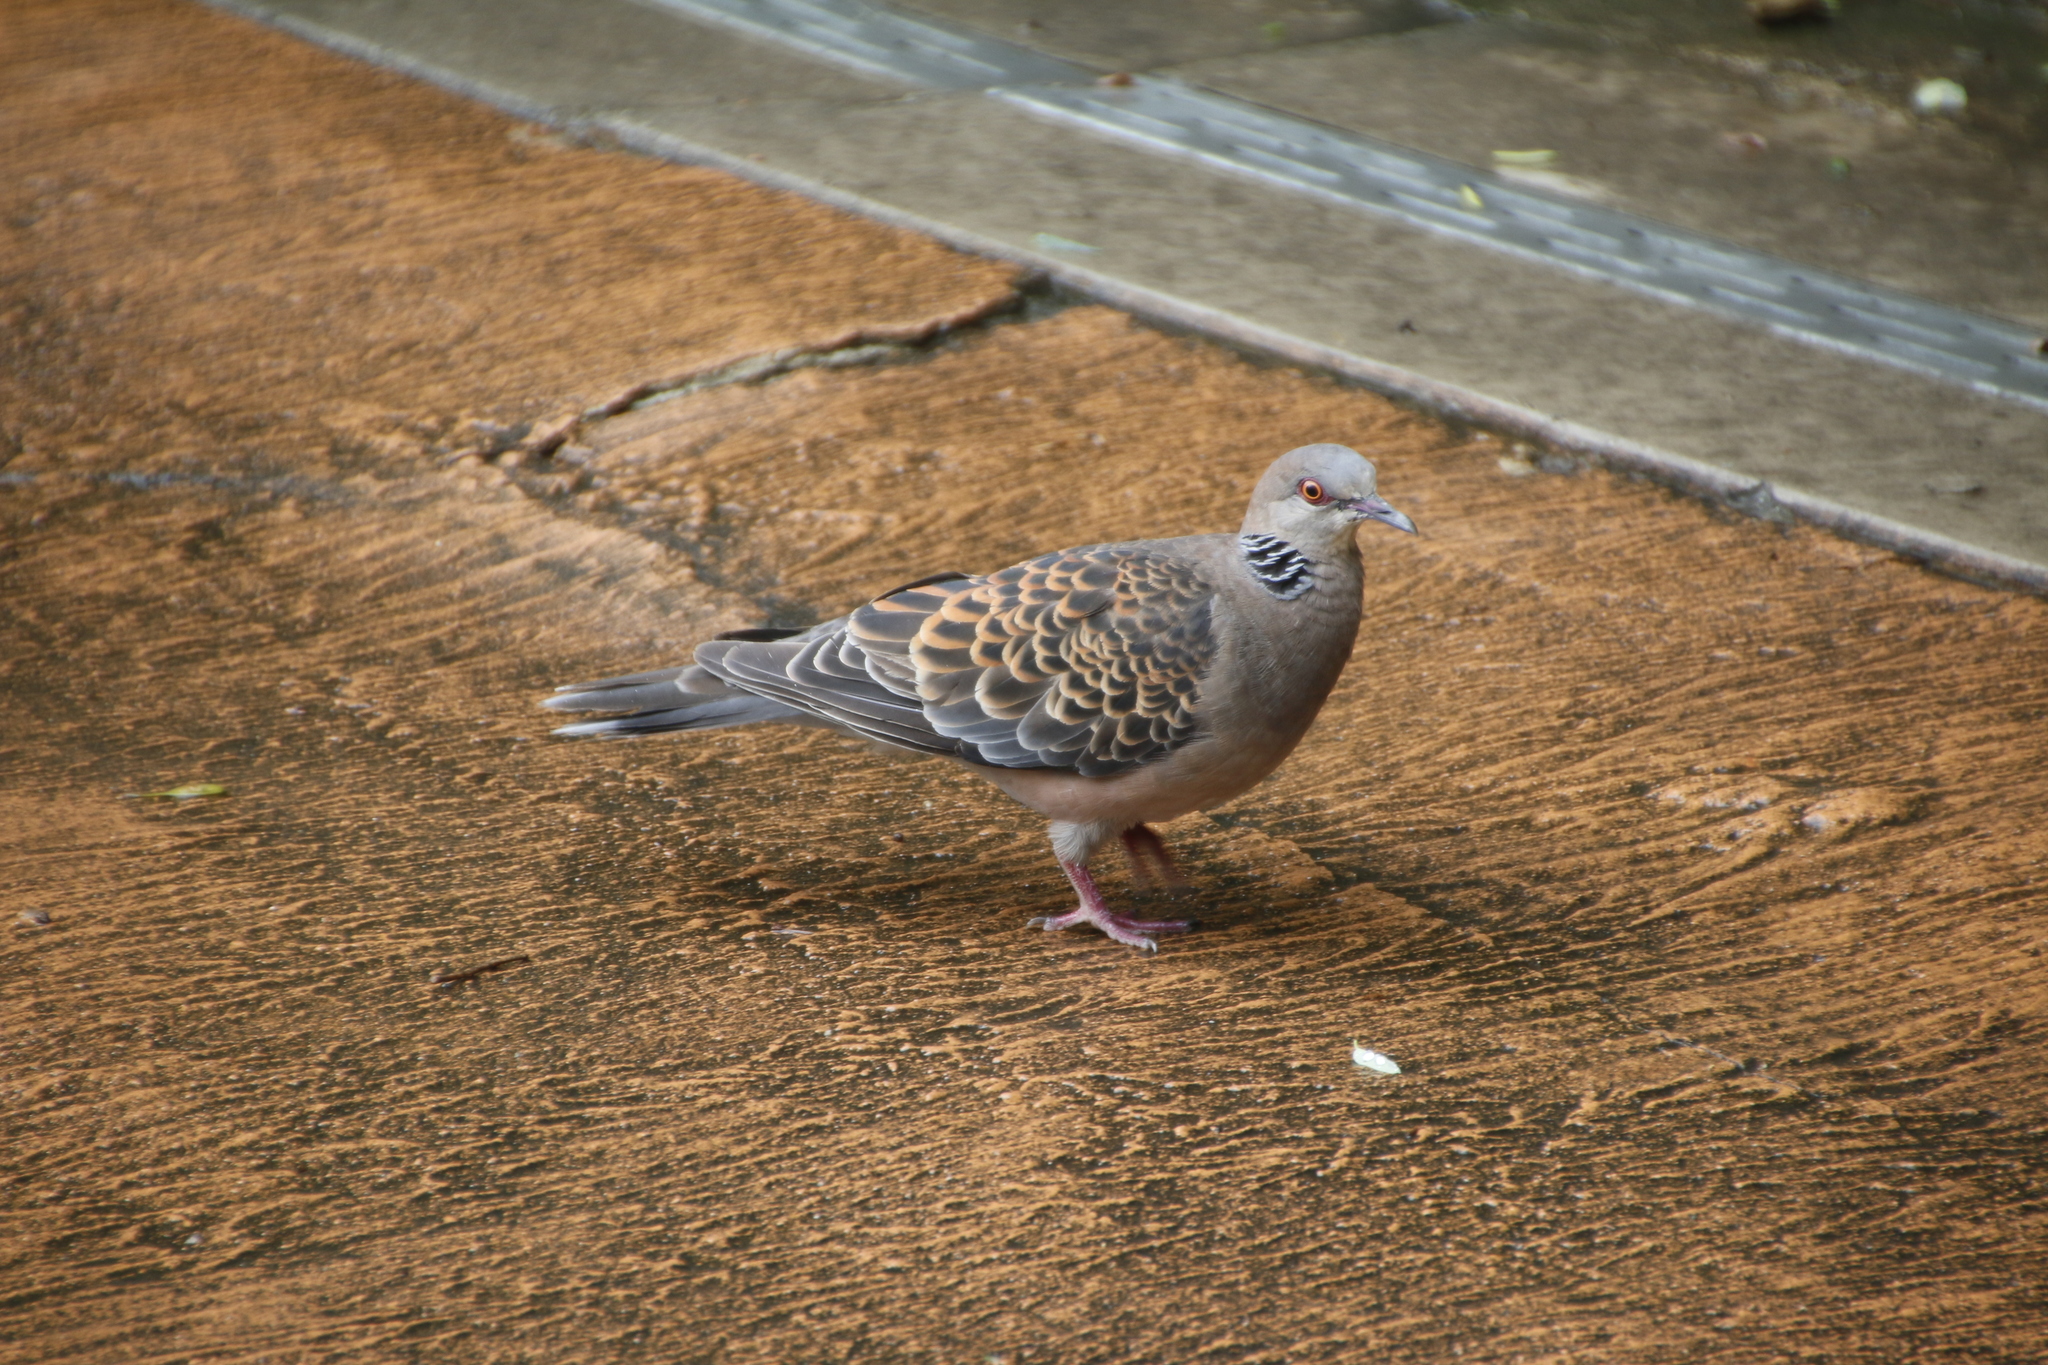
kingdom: Animalia
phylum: Chordata
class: Aves
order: Columbiformes
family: Columbidae
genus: Streptopelia
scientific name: Streptopelia orientalis
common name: Oriental turtle dove
